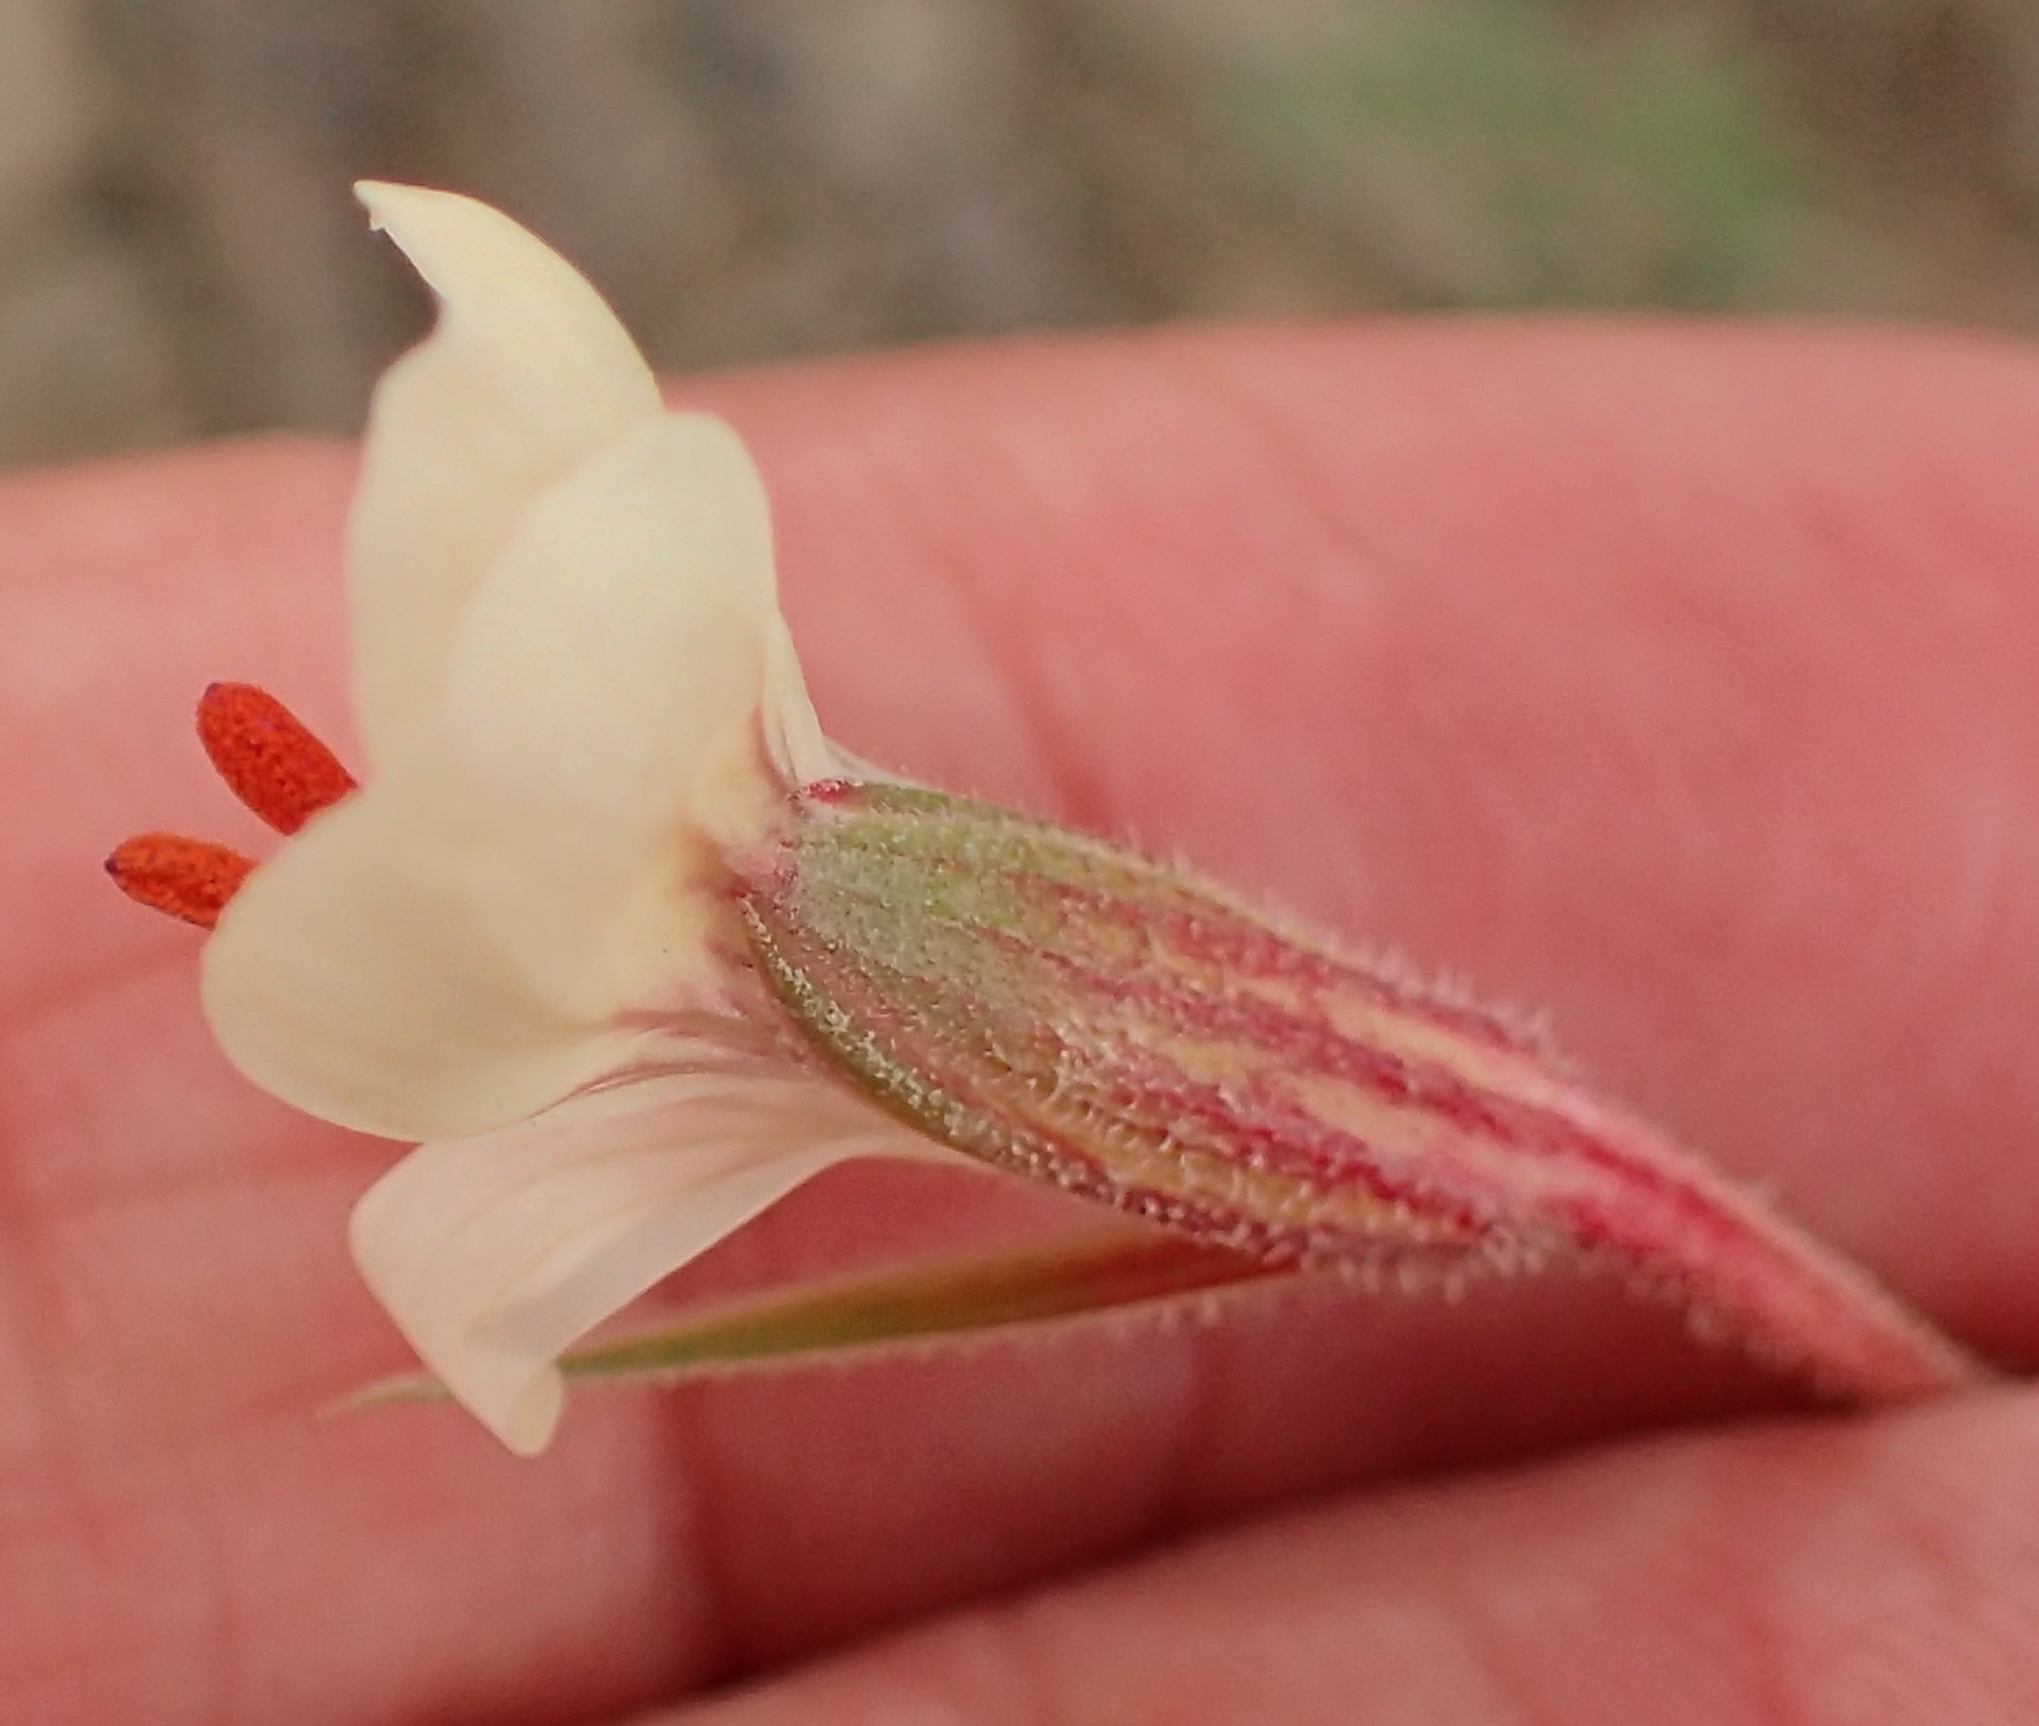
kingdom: Plantae
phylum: Tracheophyta
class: Magnoliopsida
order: Geraniales
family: Geraniaceae
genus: Pelargonium
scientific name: Pelargonium caucalifolium
